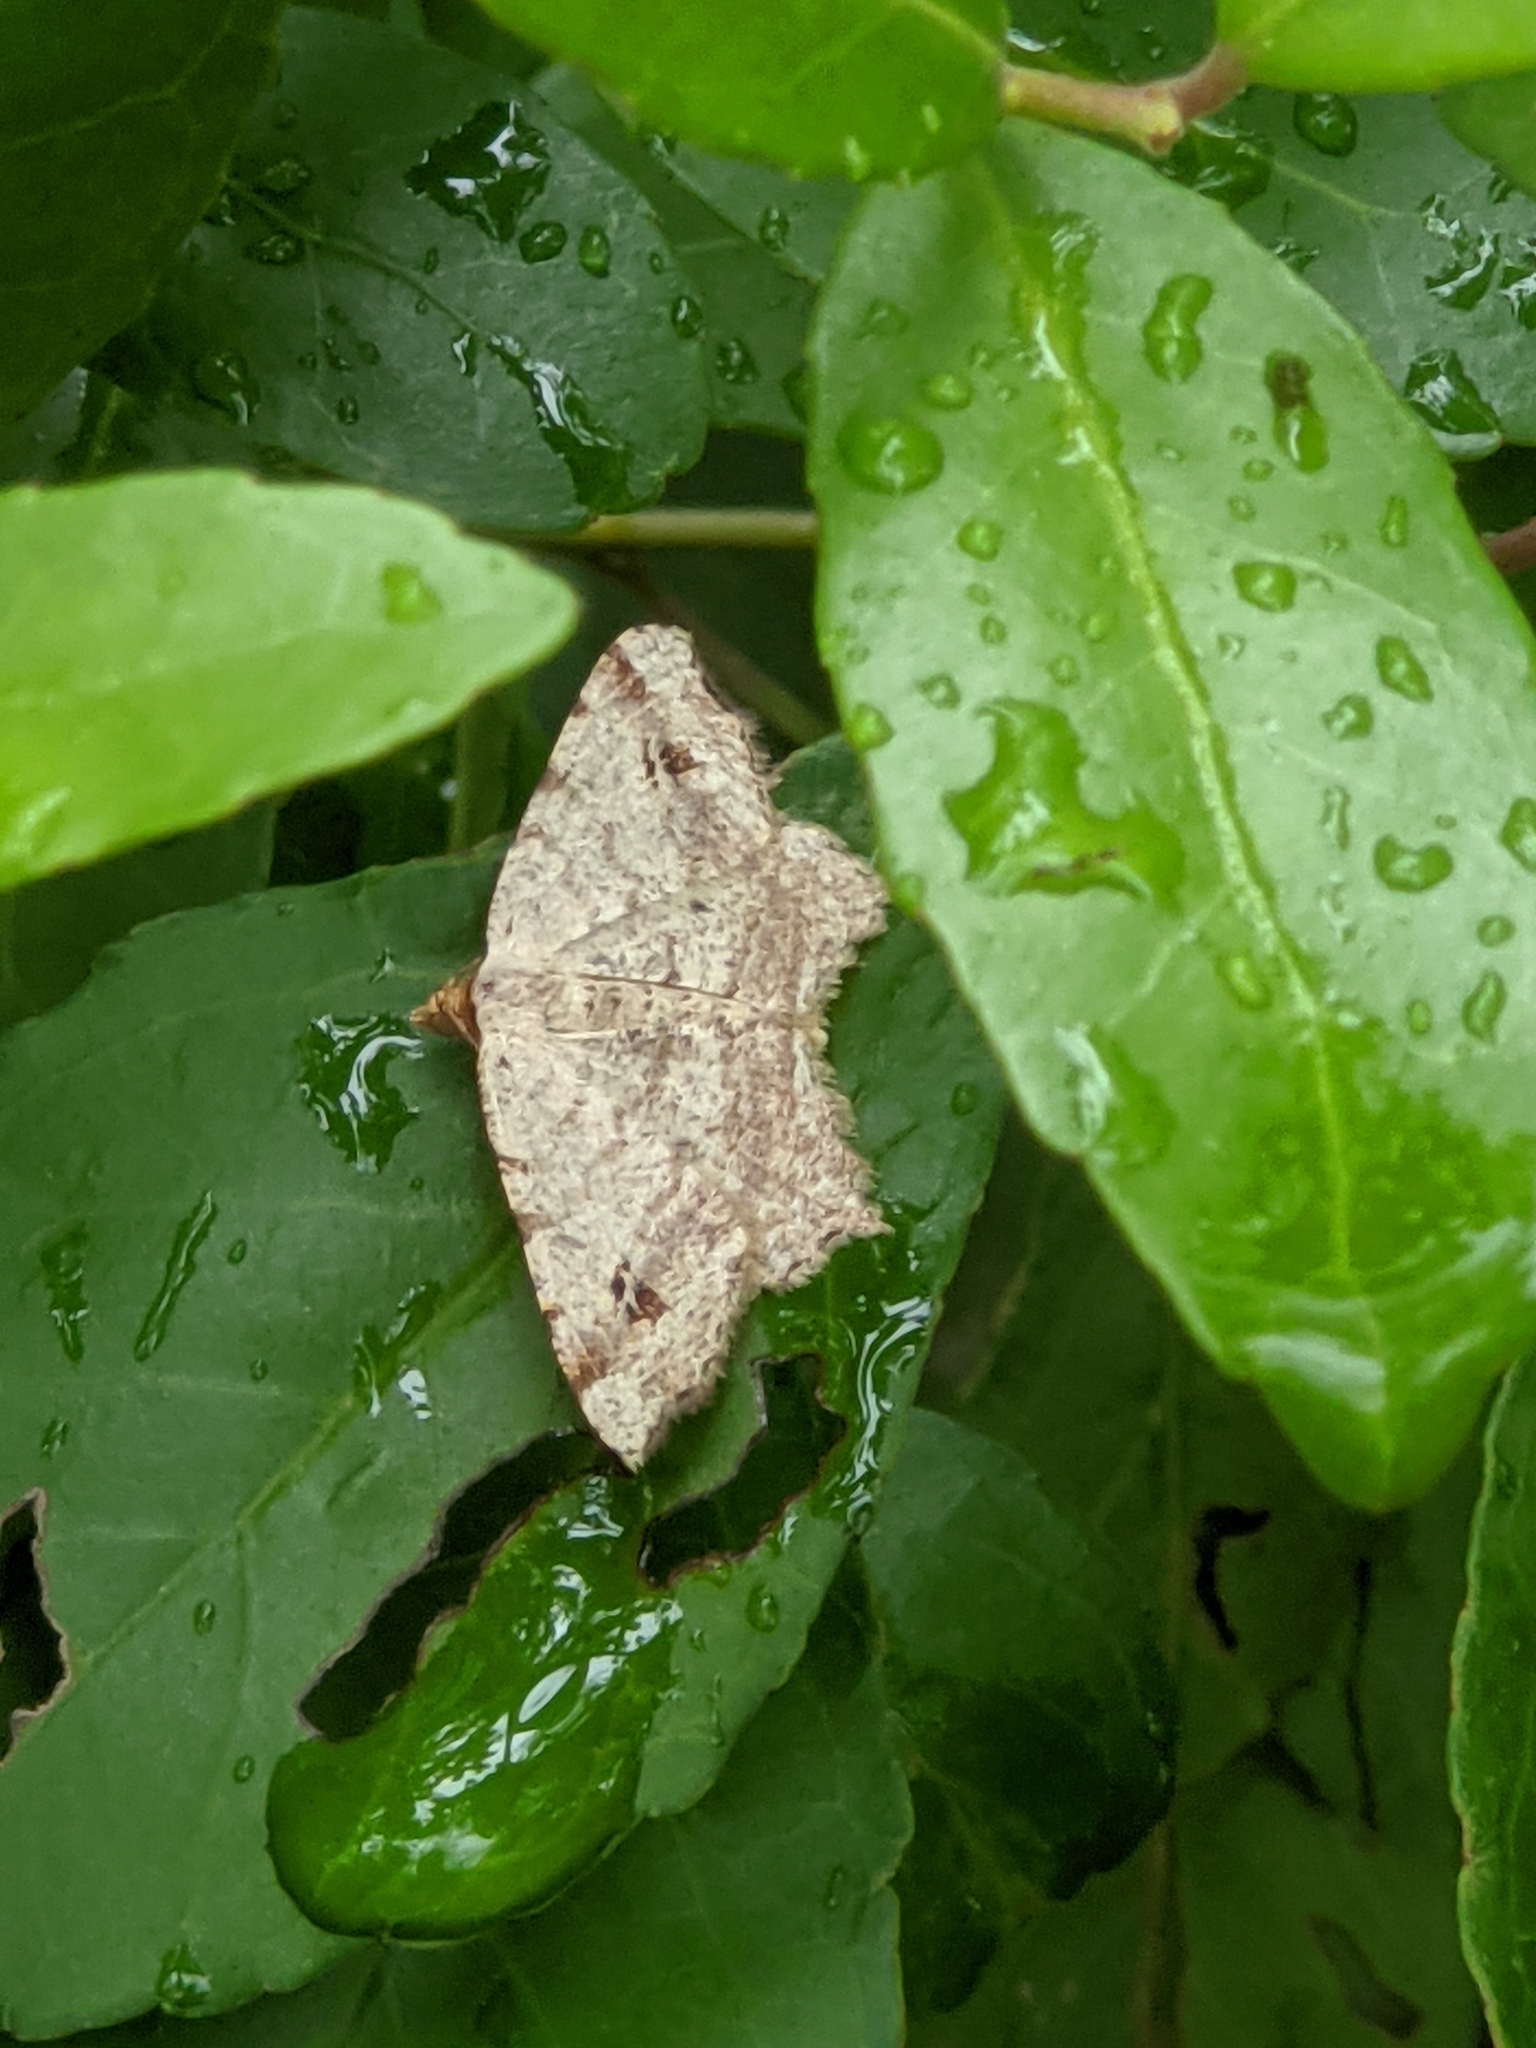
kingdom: Animalia
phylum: Arthropoda
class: Insecta
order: Lepidoptera
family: Geometridae
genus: Macaria
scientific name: Macaria aemulataria
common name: Common angle
